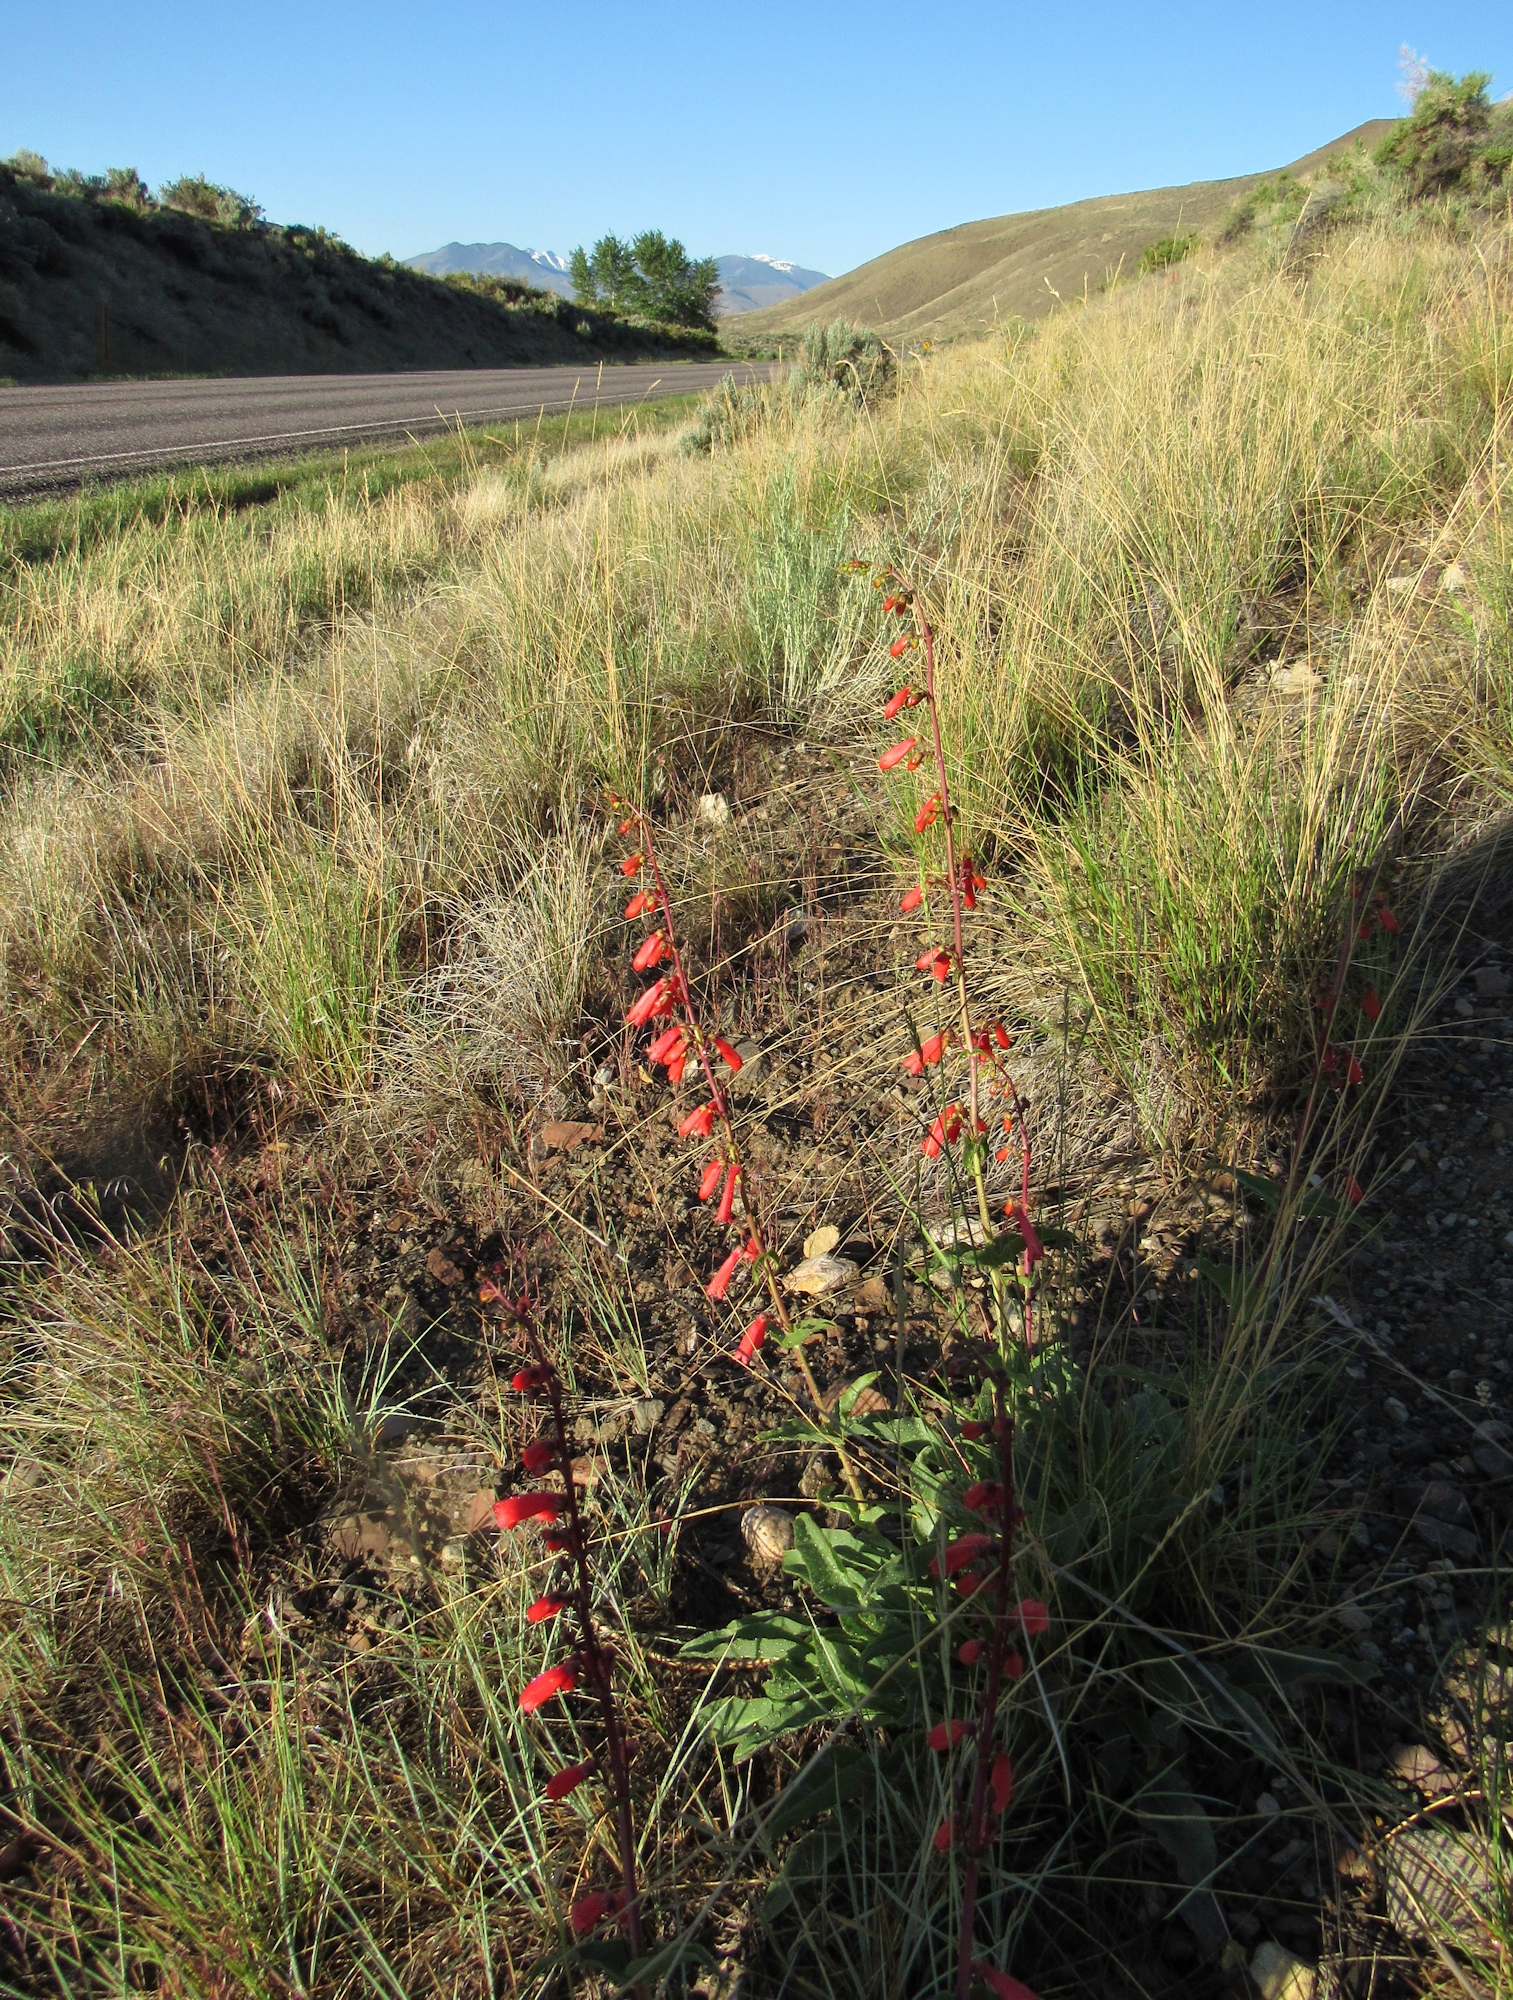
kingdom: Plantae
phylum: Tracheophyta
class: Magnoliopsida
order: Lamiales
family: Plantaginaceae
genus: Penstemon
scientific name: Penstemon eatonii
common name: Eaton's penstemon
